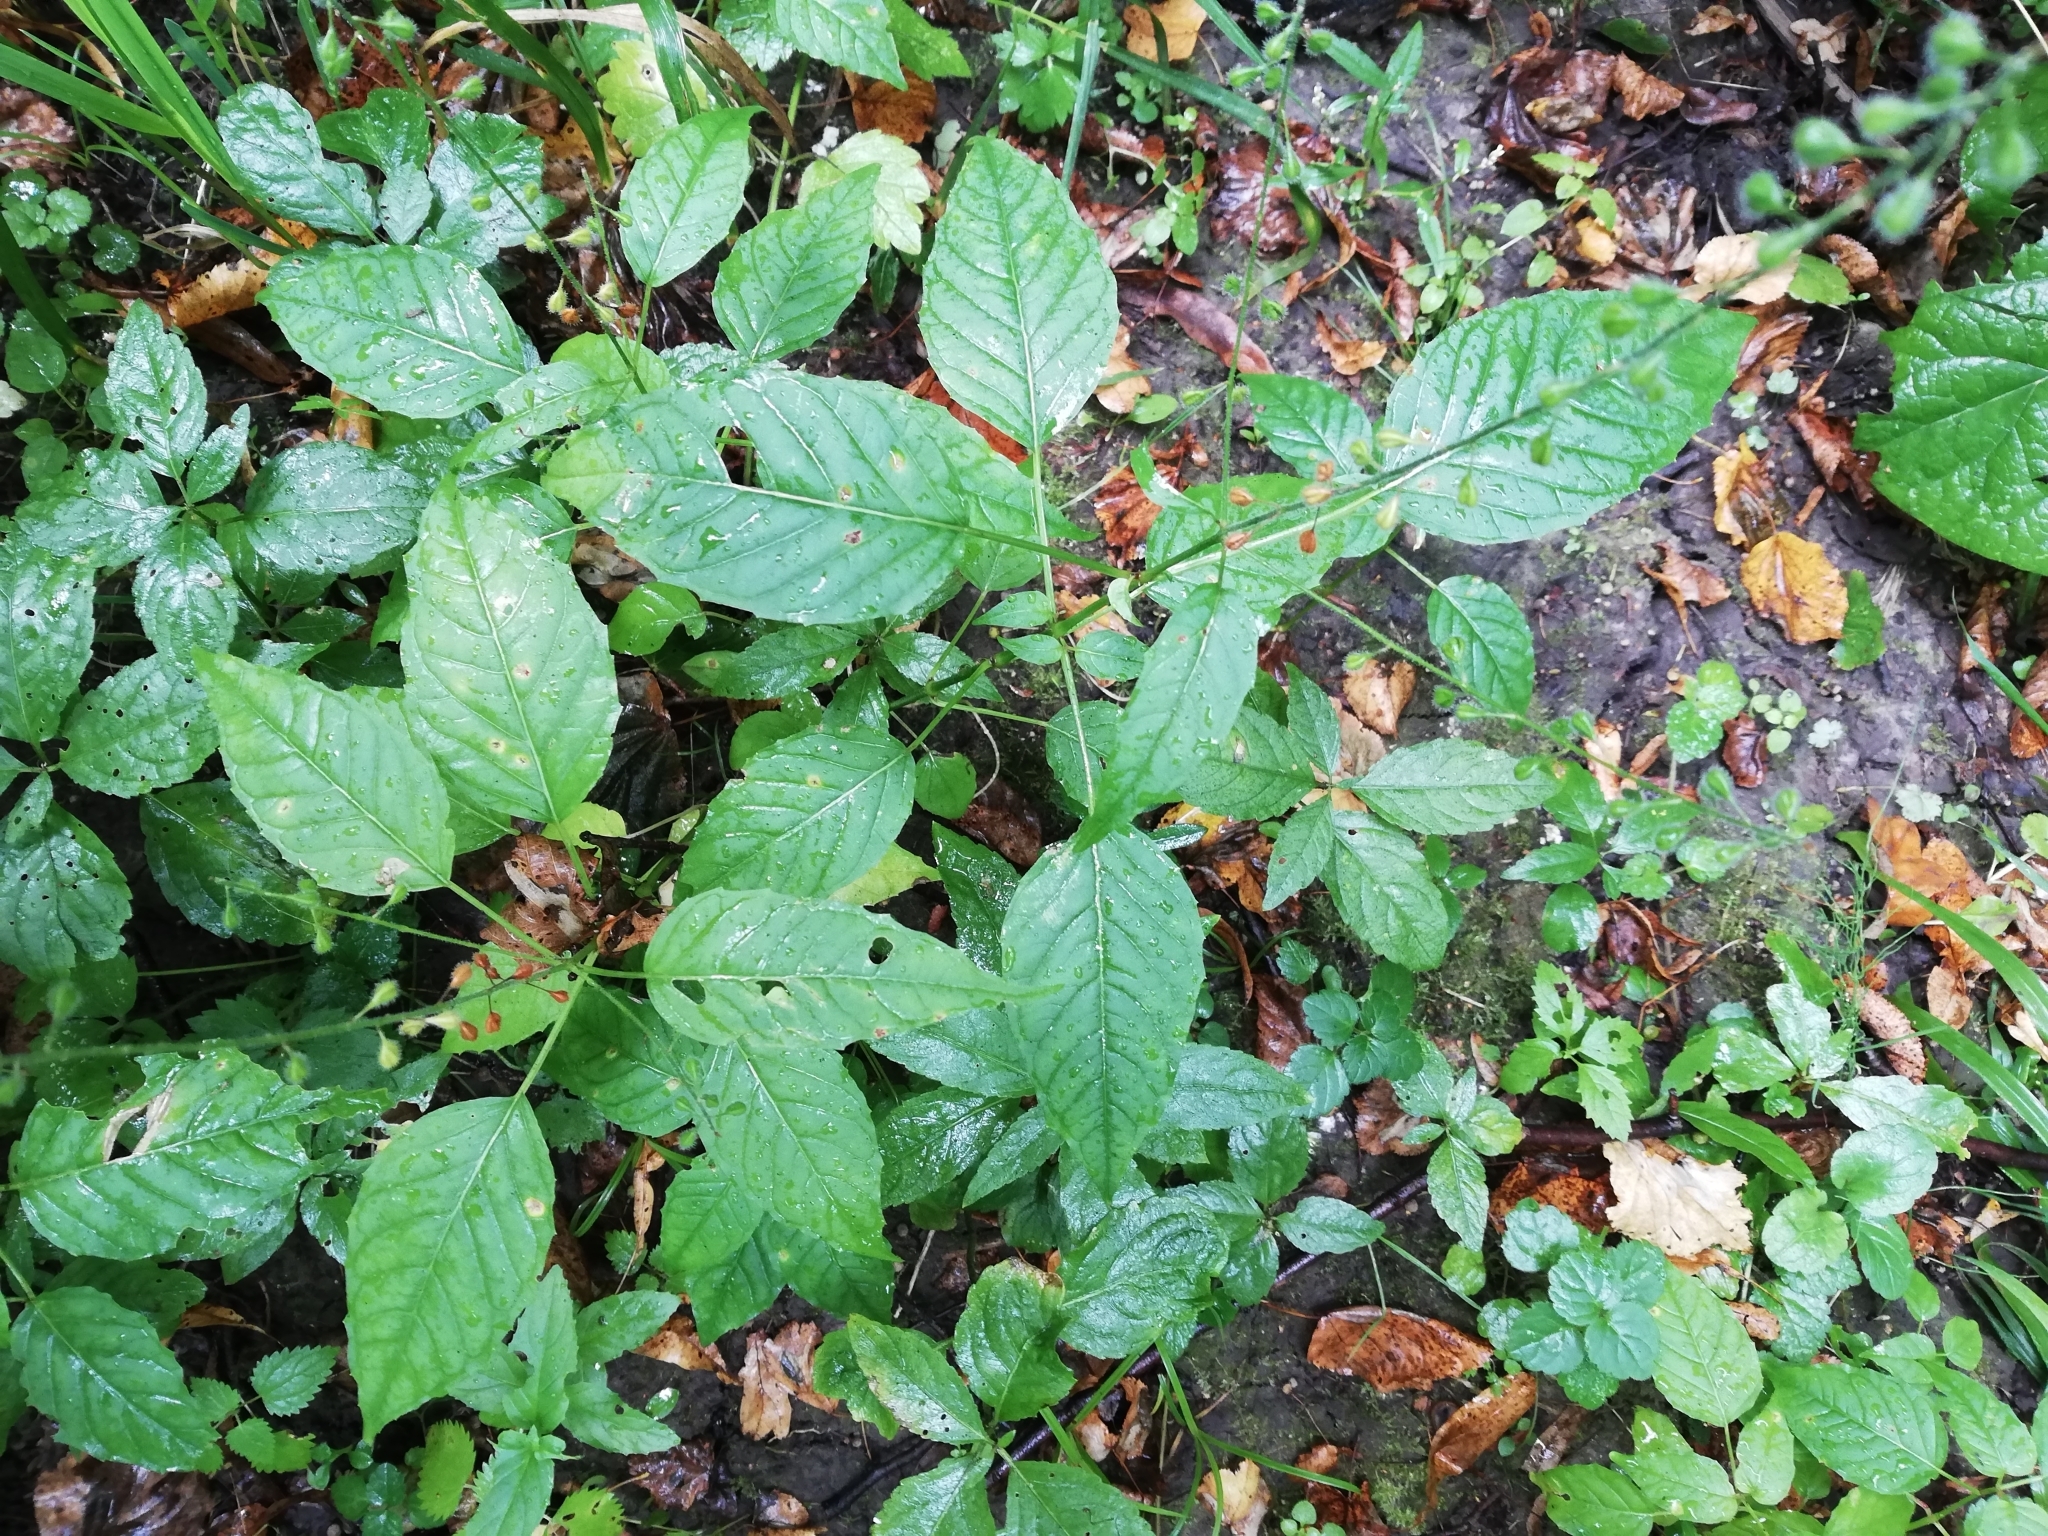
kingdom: Plantae
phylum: Tracheophyta
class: Magnoliopsida
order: Myrtales
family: Onagraceae
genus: Circaea
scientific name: Circaea lutetiana
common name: Enchanter's-nightshade
